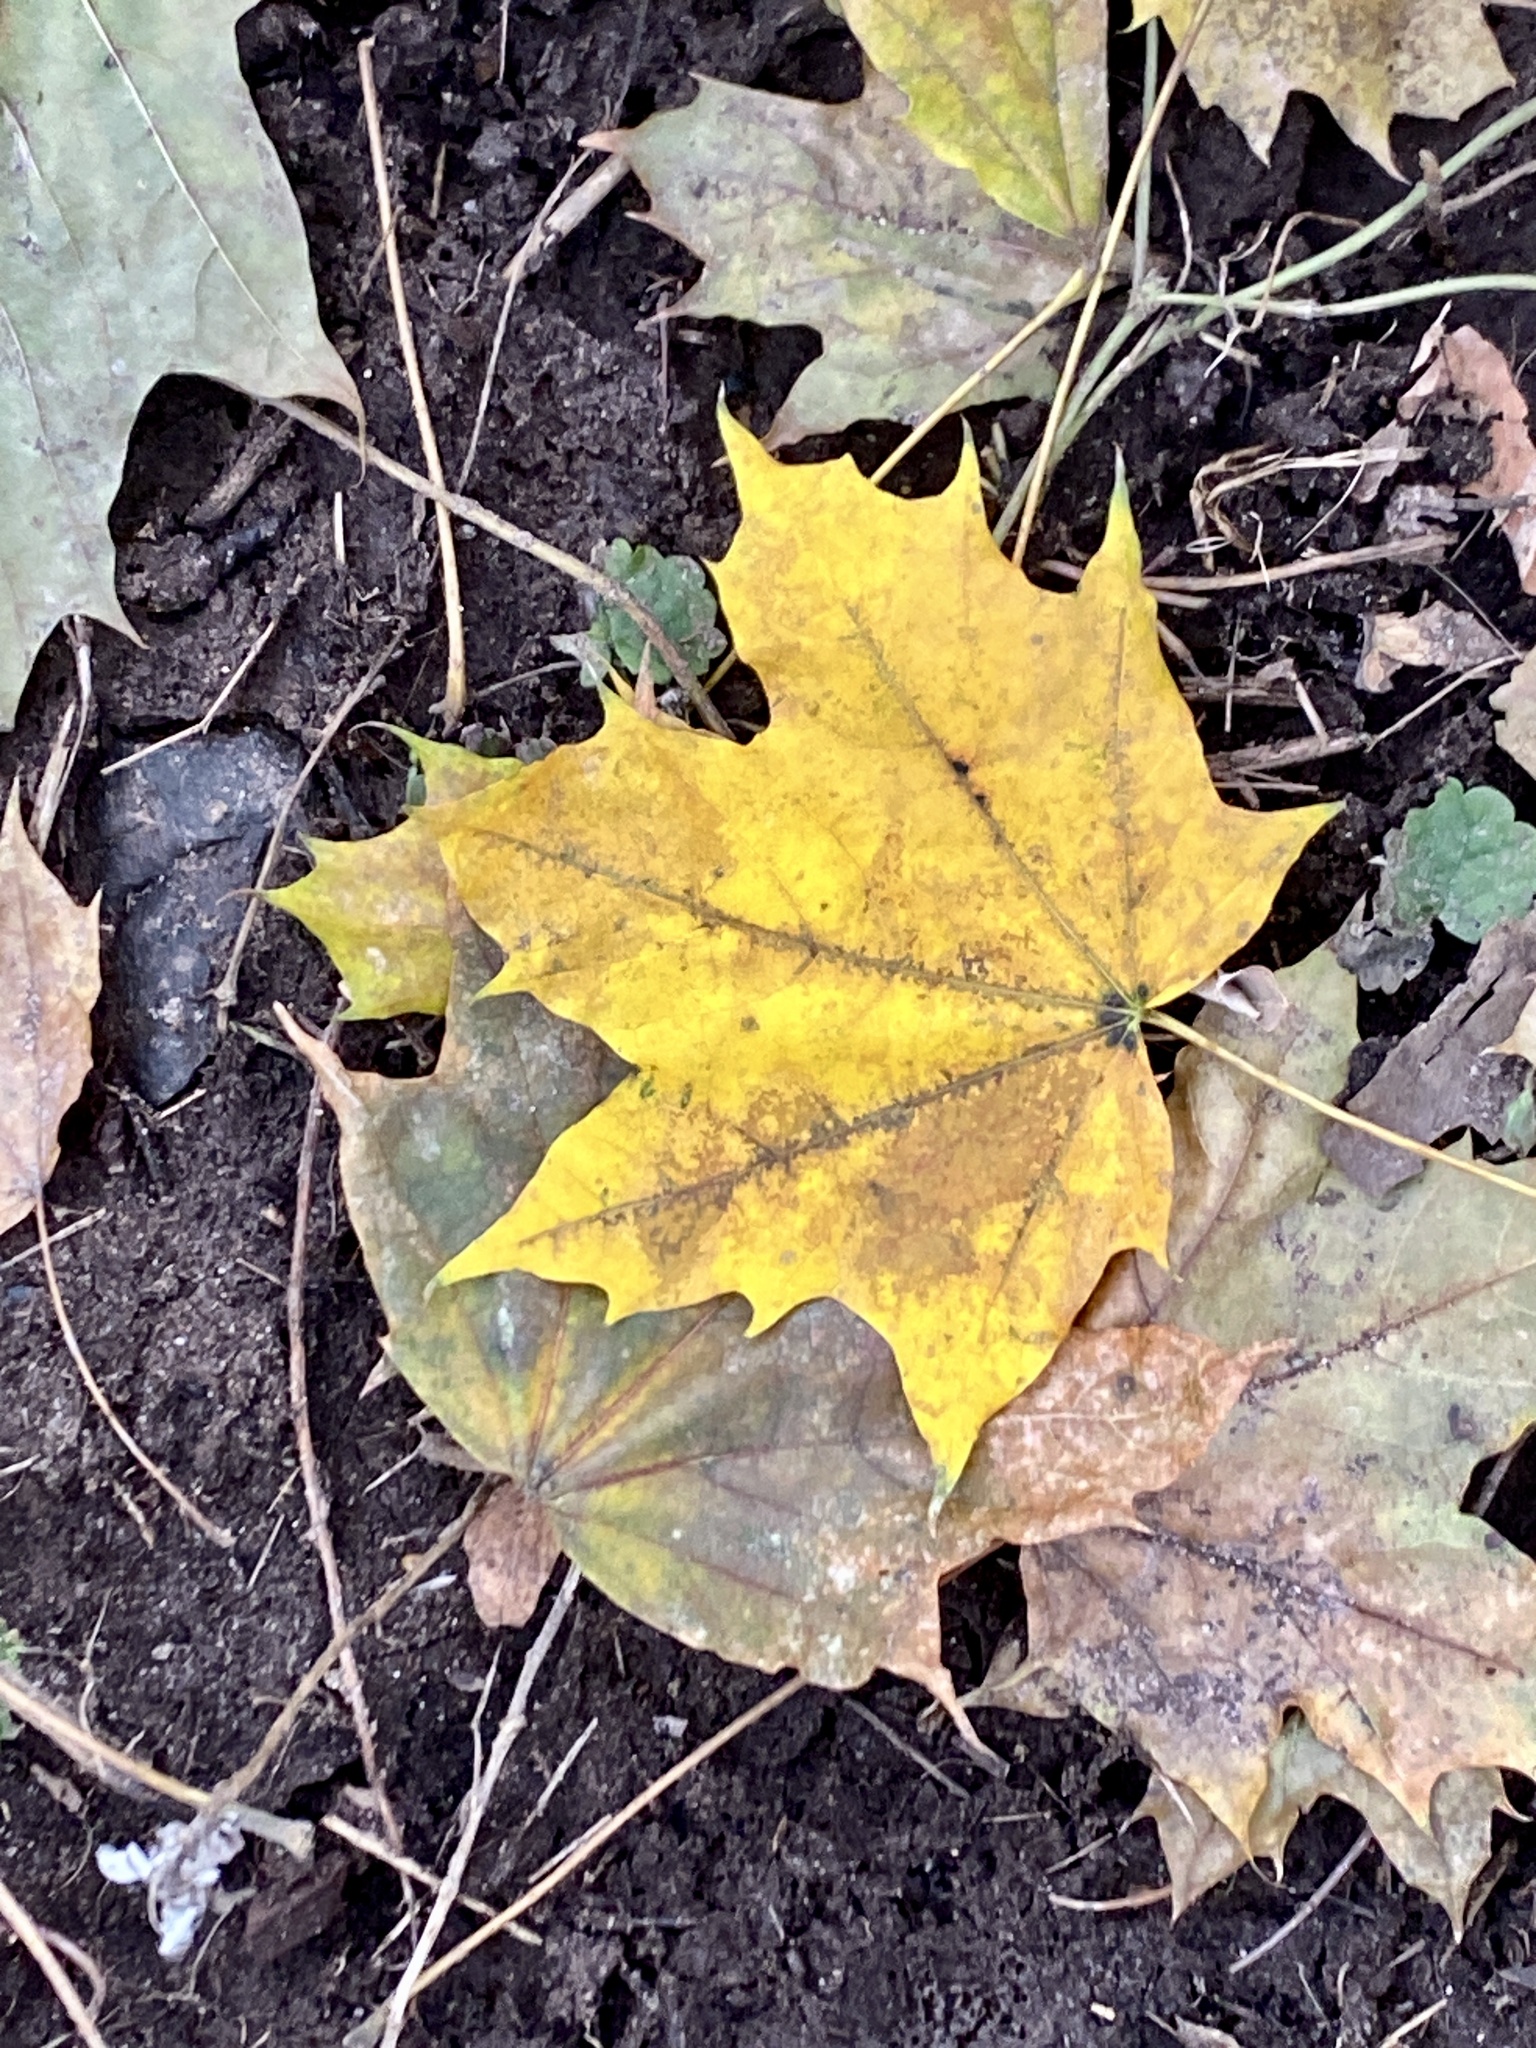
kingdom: Plantae
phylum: Tracheophyta
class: Magnoliopsida
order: Sapindales
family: Sapindaceae
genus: Acer
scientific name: Acer platanoides
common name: Norway maple
